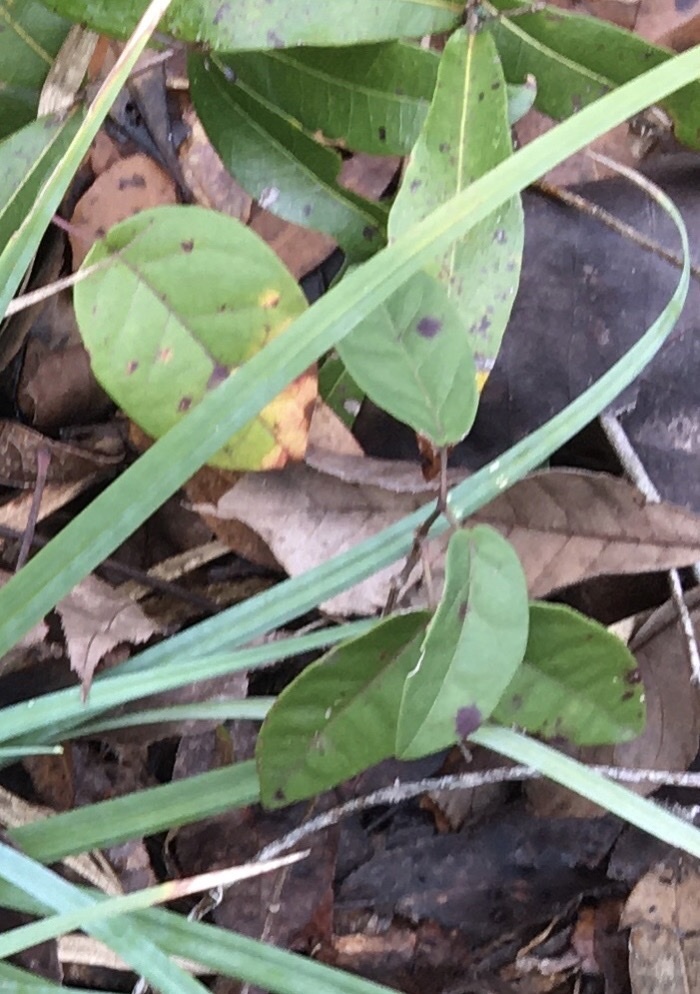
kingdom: Plantae
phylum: Tracheophyta
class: Magnoliopsida
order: Lamiales
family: Bignoniaceae
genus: Bignonia
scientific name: Bignonia capreolata
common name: Crossvine
